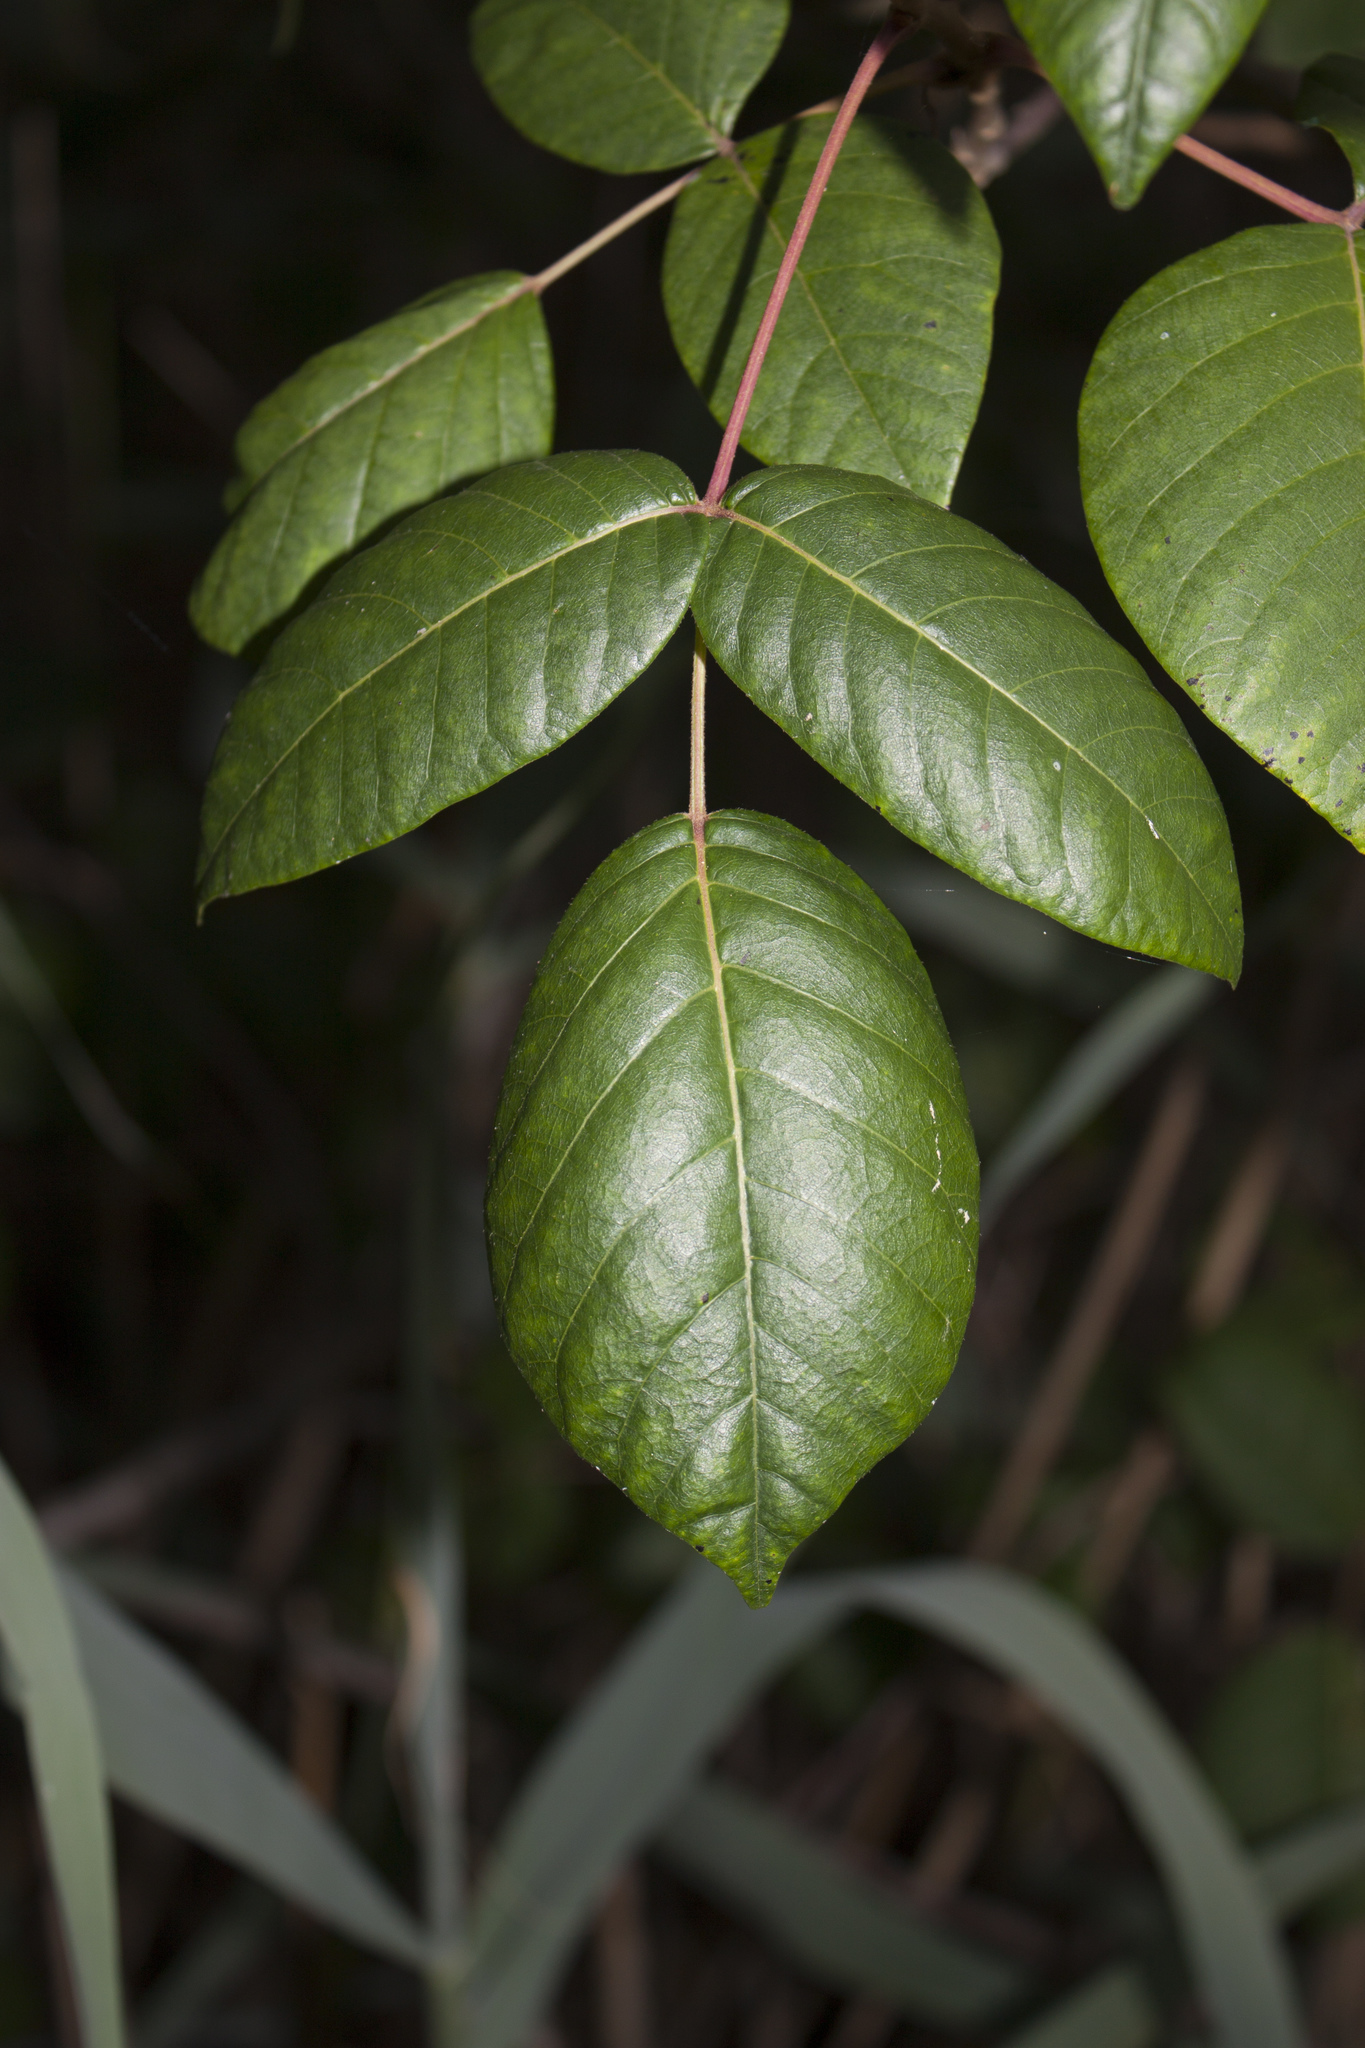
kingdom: Plantae
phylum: Tracheophyta
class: Magnoliopsida
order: Sapindales
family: Anacardiaceae
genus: Toxicodendron
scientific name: Toxicodendron radicans
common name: Poison ivy
